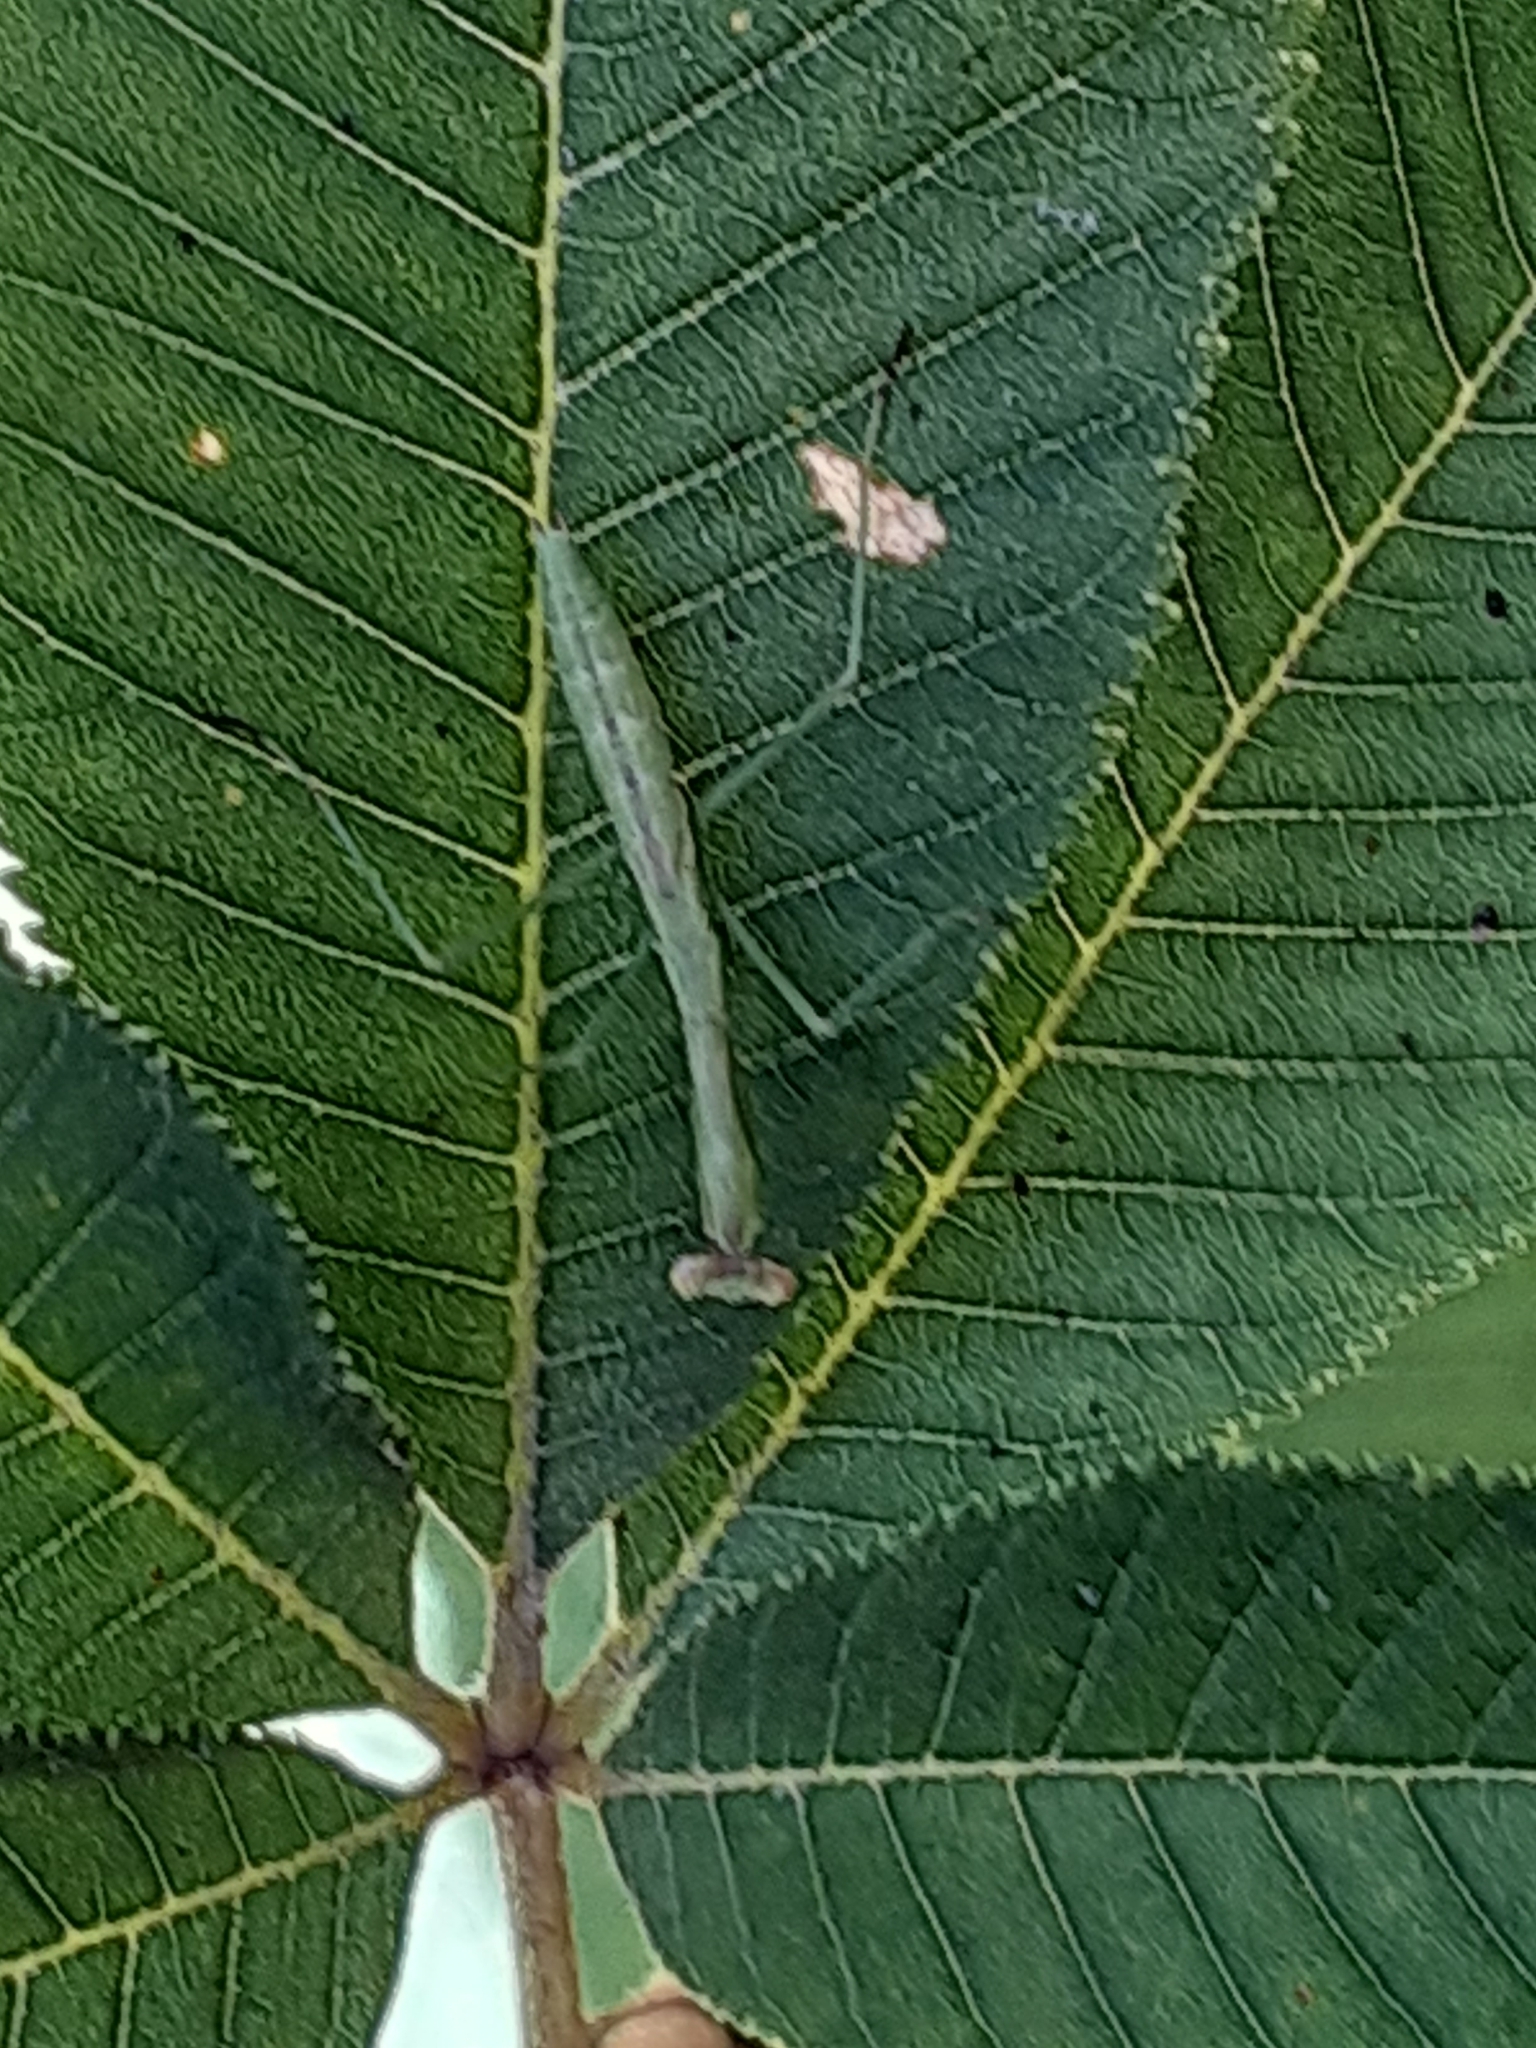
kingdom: Animalia
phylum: Arthropoda
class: Insecta
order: Mantodea
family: Mantidae
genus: Stagmomantis
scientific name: Stagmomantis carolina
